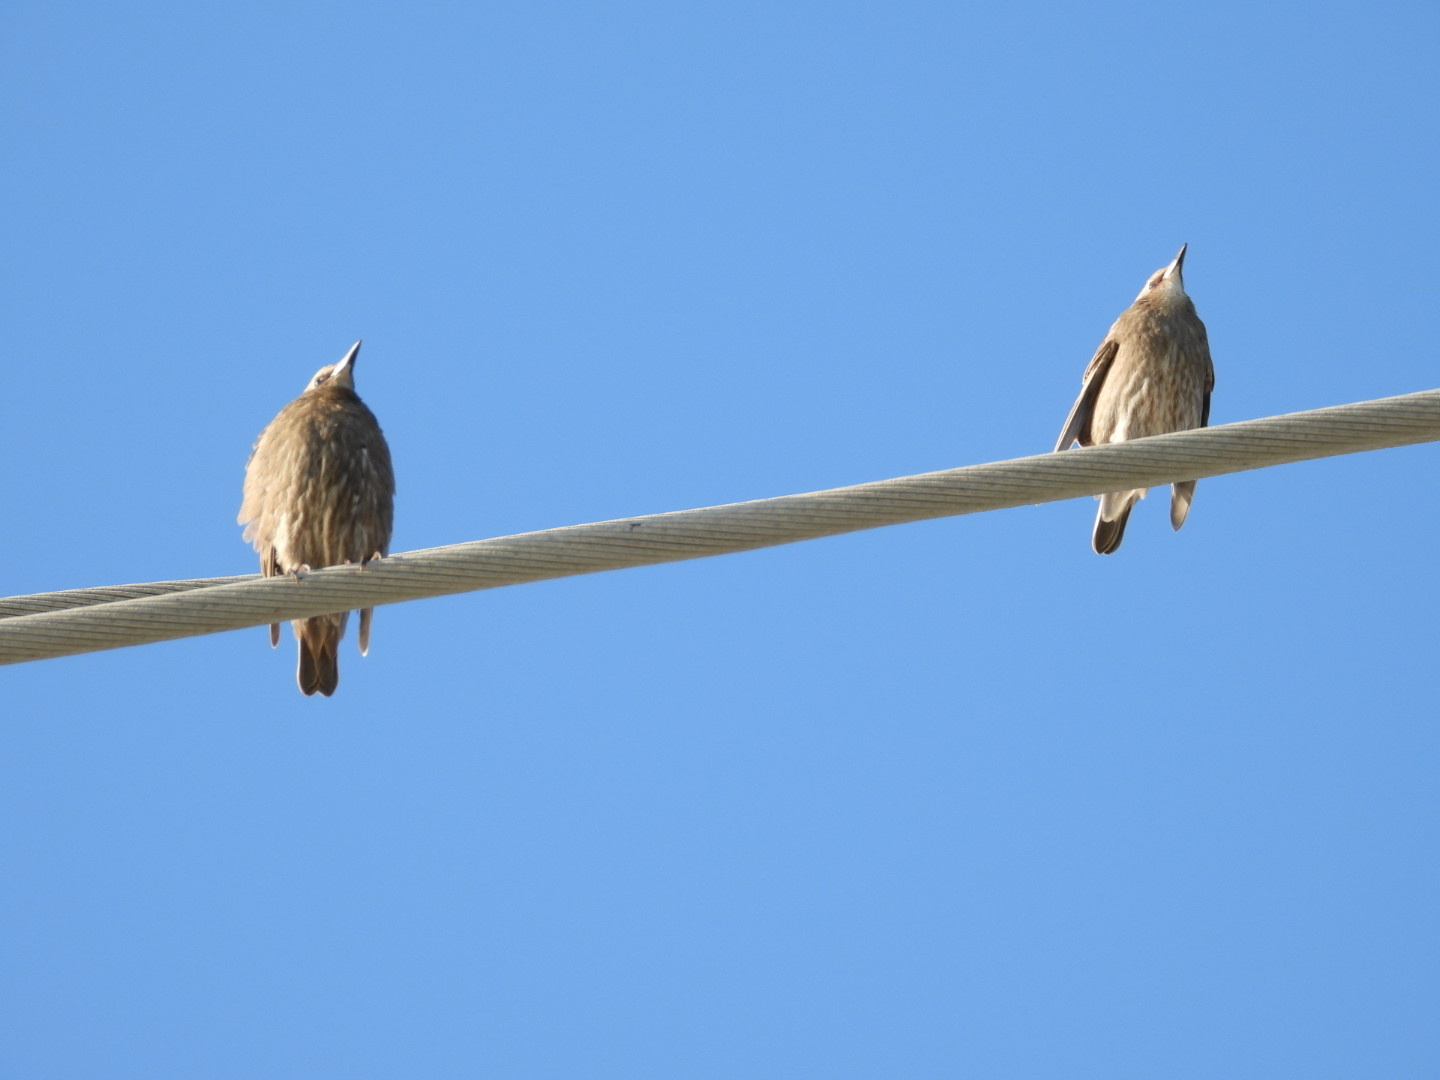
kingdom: Animalia
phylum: Chordata
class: Aves
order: Passeriformes
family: Sturnidae
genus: Sturnus
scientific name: Sturnus vulgaris
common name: Common starling
